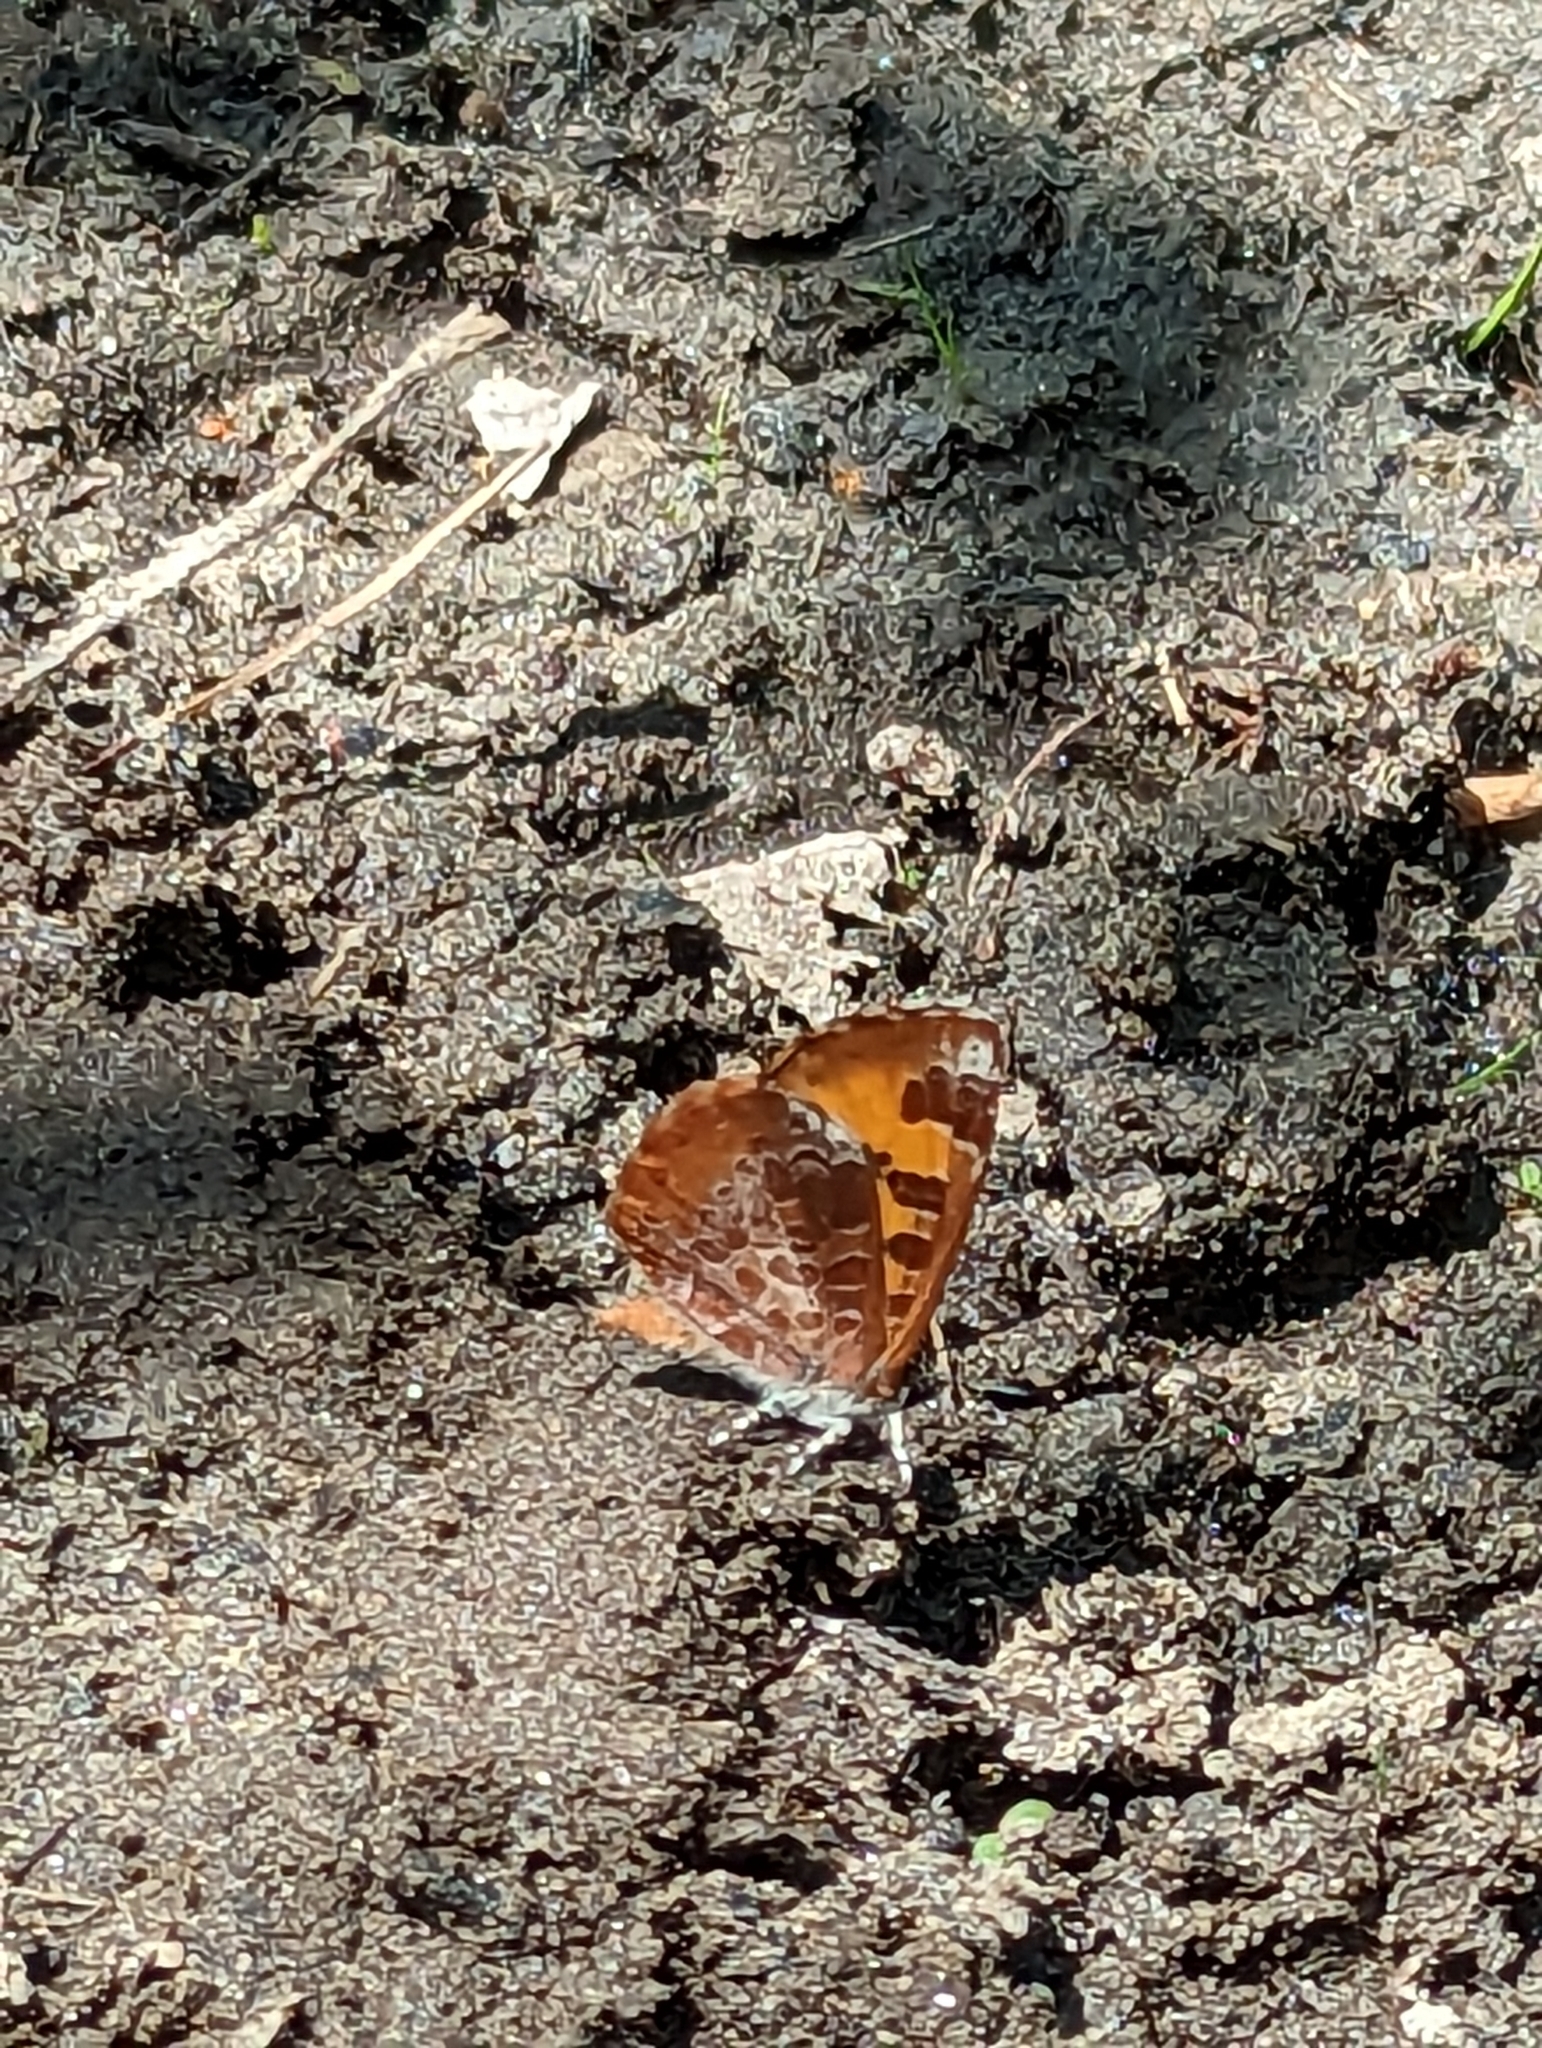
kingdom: Animalia
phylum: Arthropoda
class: Insecta
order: Lepidoptera
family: Lycaenidae
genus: Feniseca
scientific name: Feniseca tarquinius
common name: Harvester
